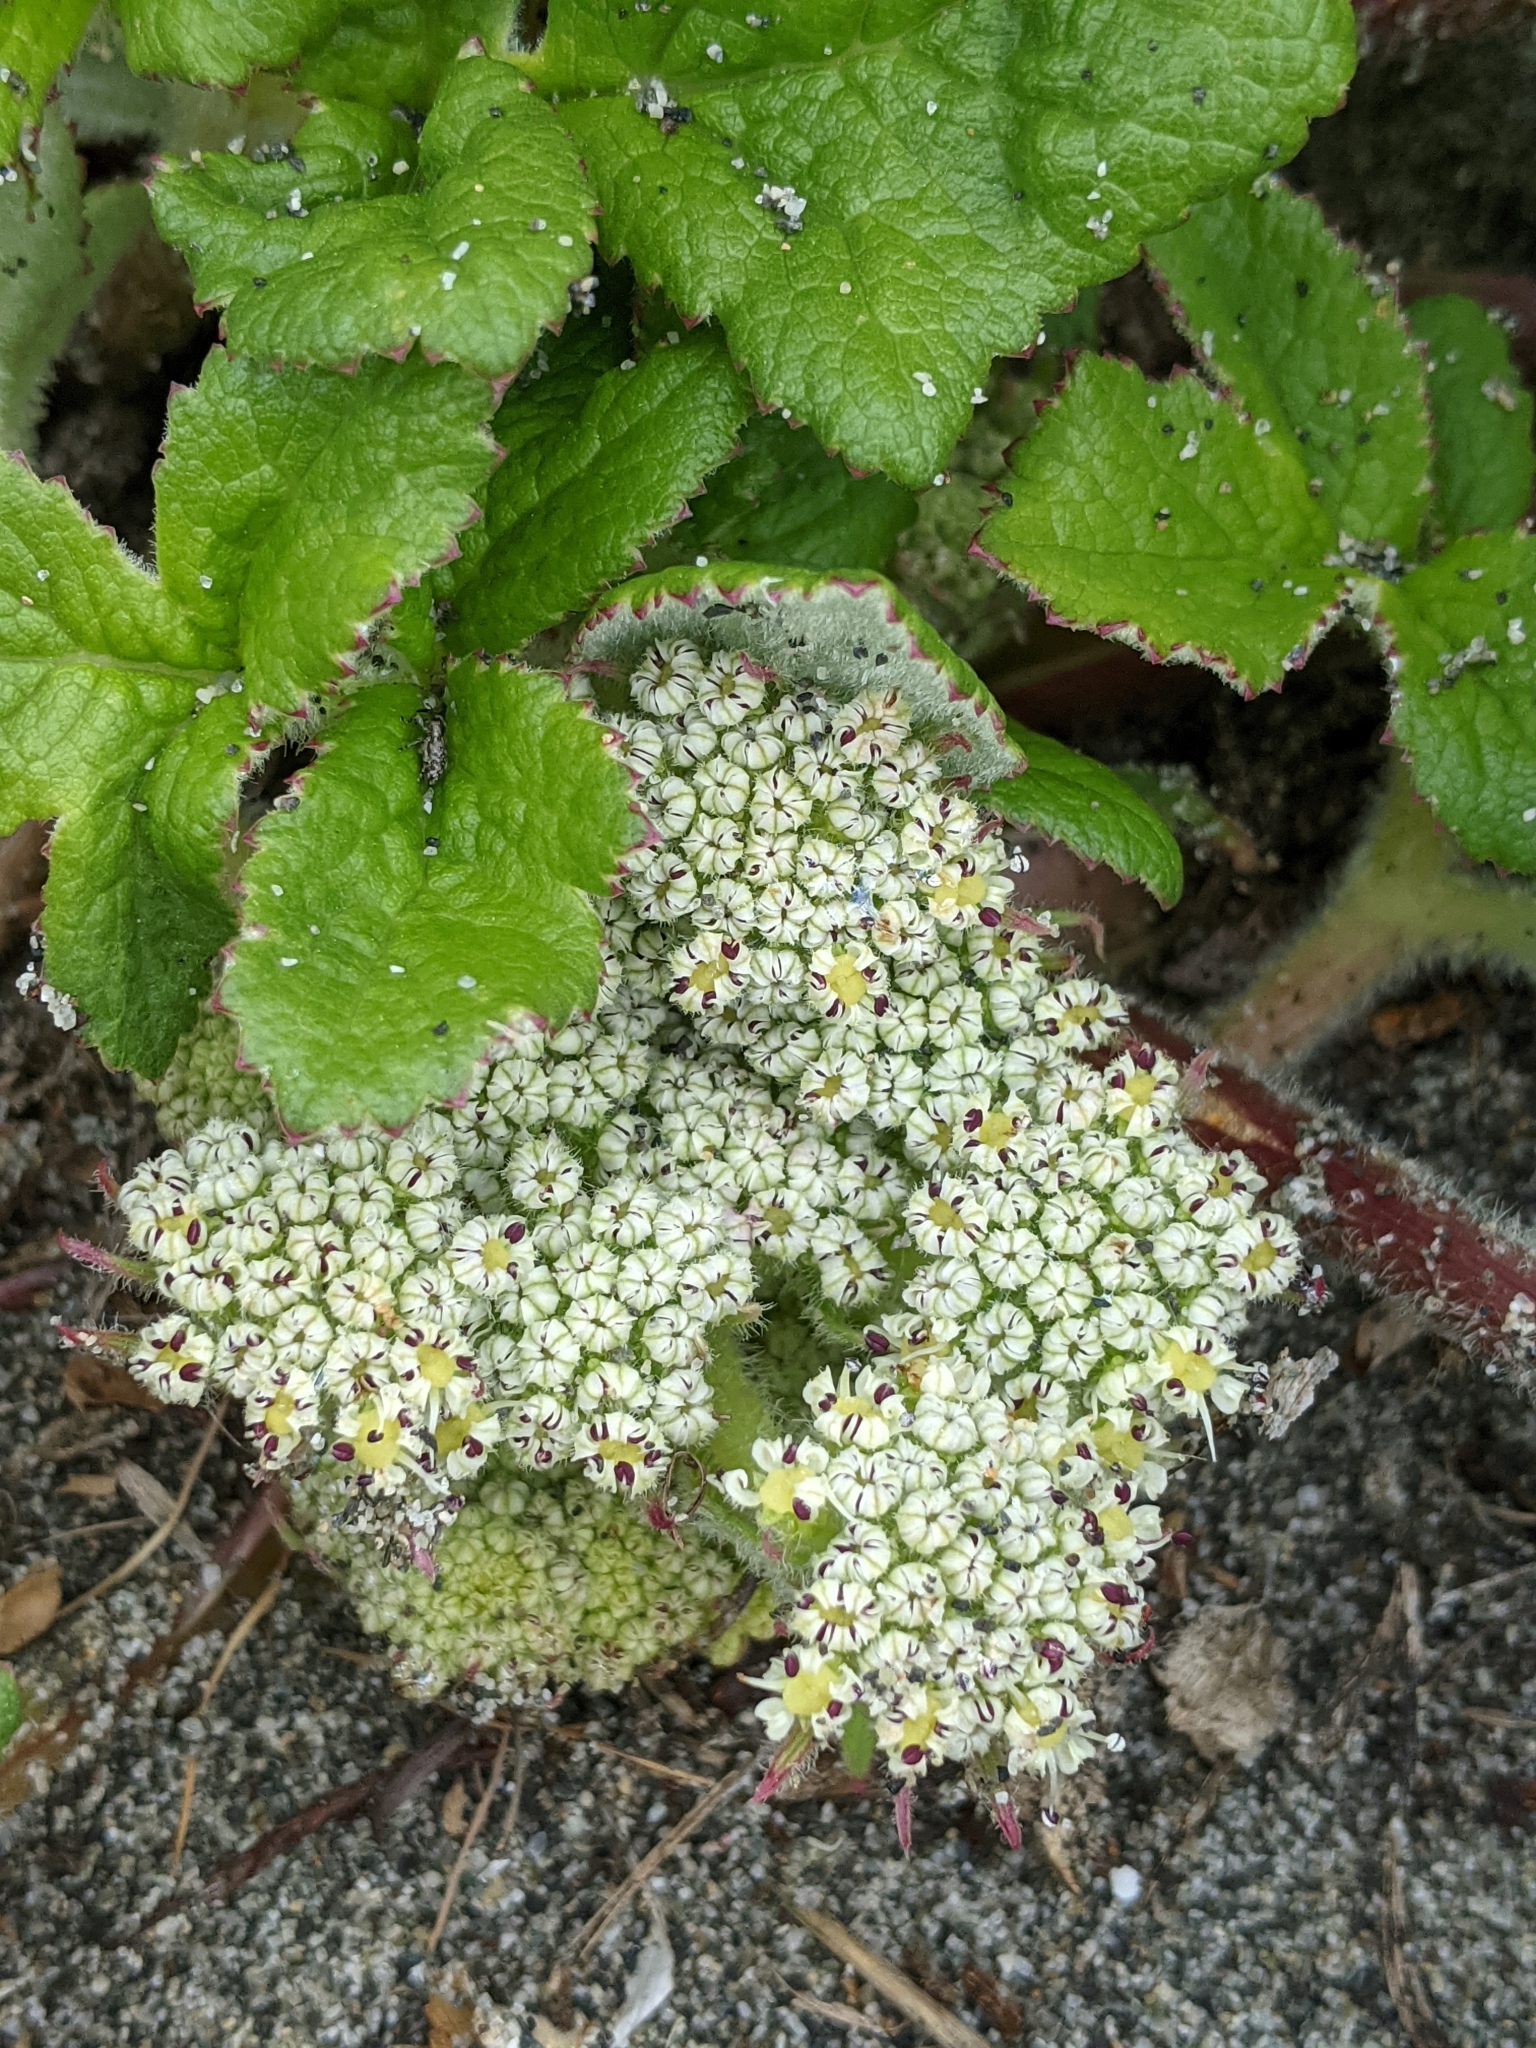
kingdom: Plantae
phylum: Tracheophyta
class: Magnoliopsida
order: Apiales
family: Apiaceae
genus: Angelica
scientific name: Angelica leiocarpa
